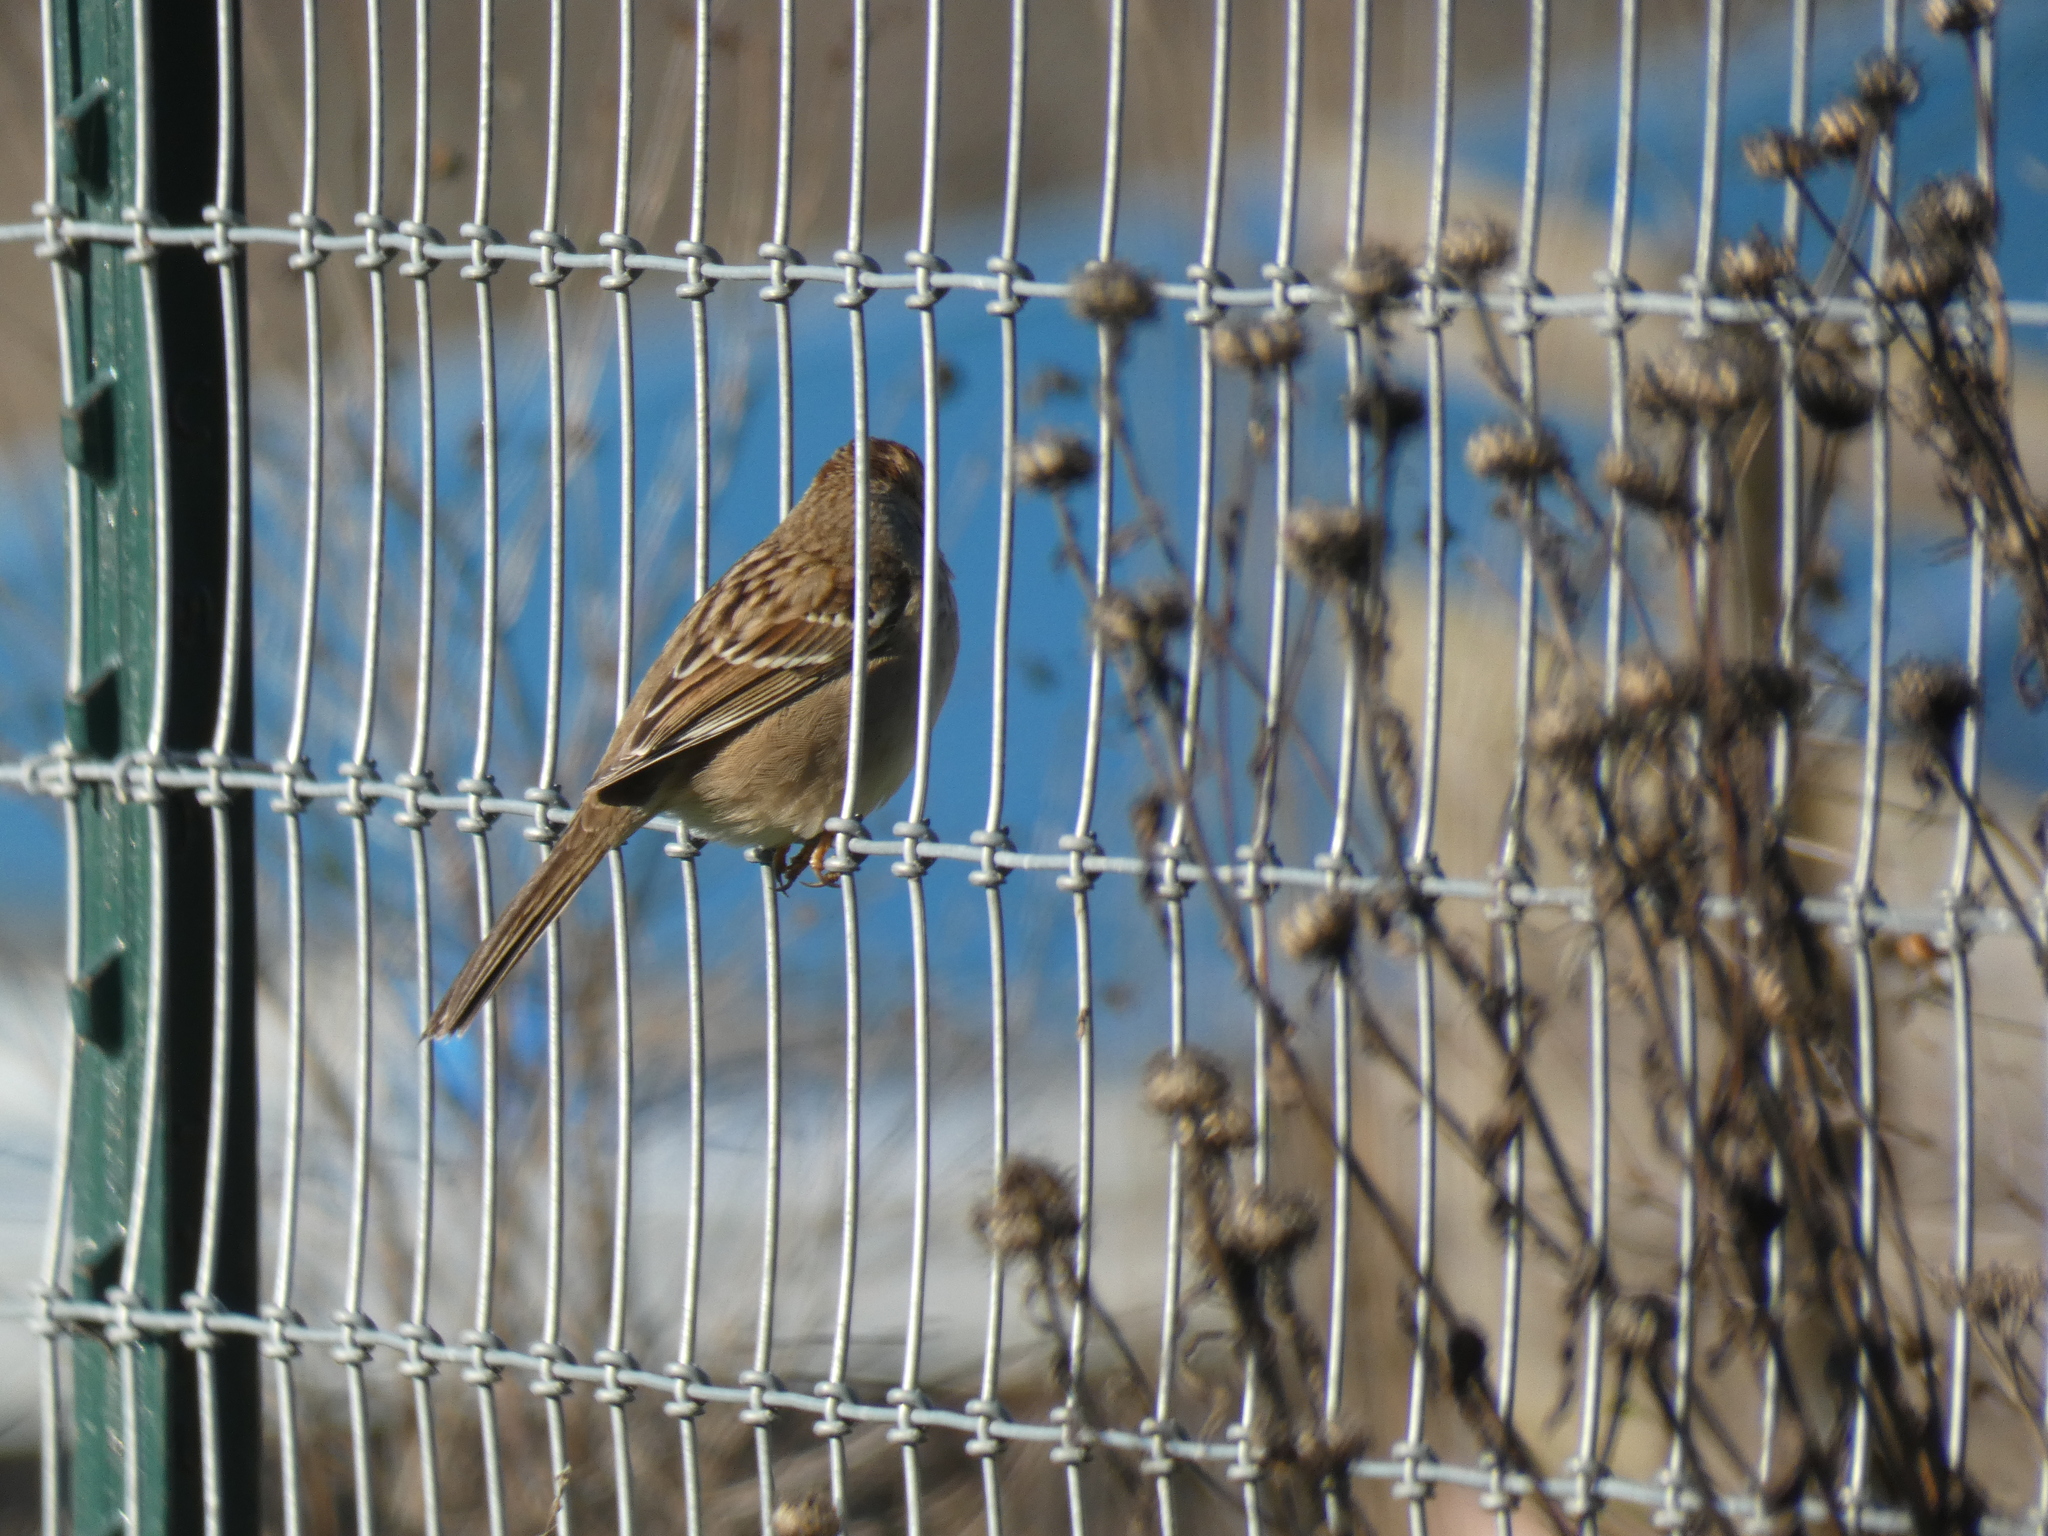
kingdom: Animalia
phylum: Chordata
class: Aves
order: Passeriformes
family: Passerellidae
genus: Zonotrichia
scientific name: Zonotrichia atricapilla
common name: Golden-crowned sparrow
